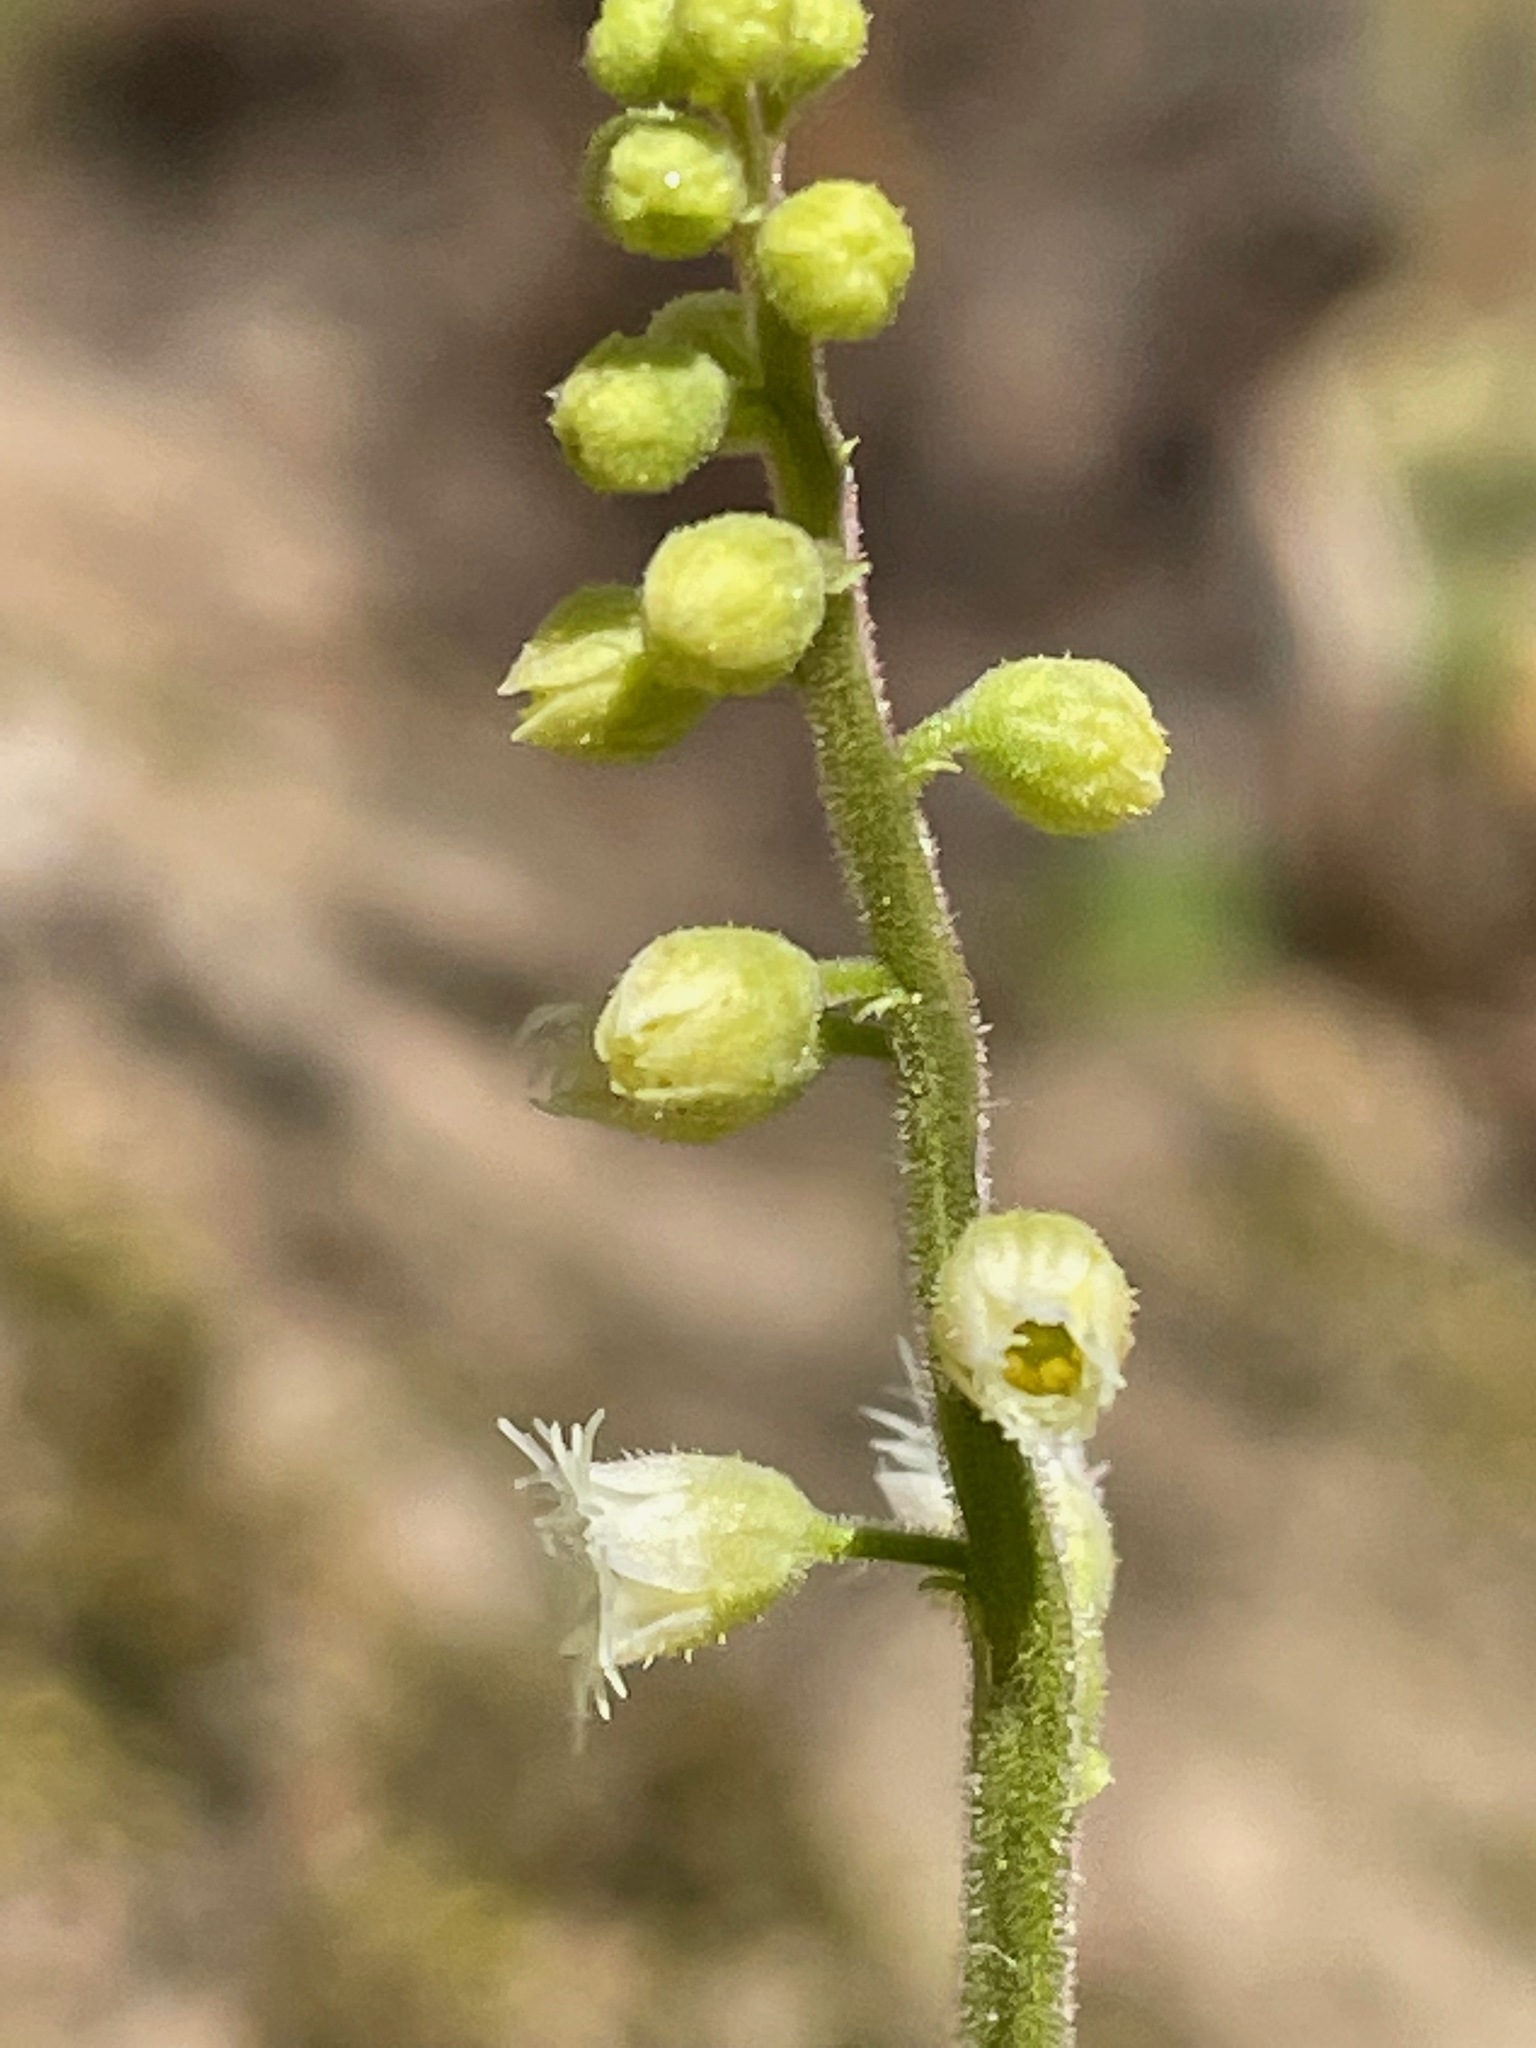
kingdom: Plantae
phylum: Tracheophyta
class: Magnoliopsida
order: Saxifragales
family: Saxifragaceae
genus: Mitella
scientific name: Mitella diphylla
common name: Coolwort
